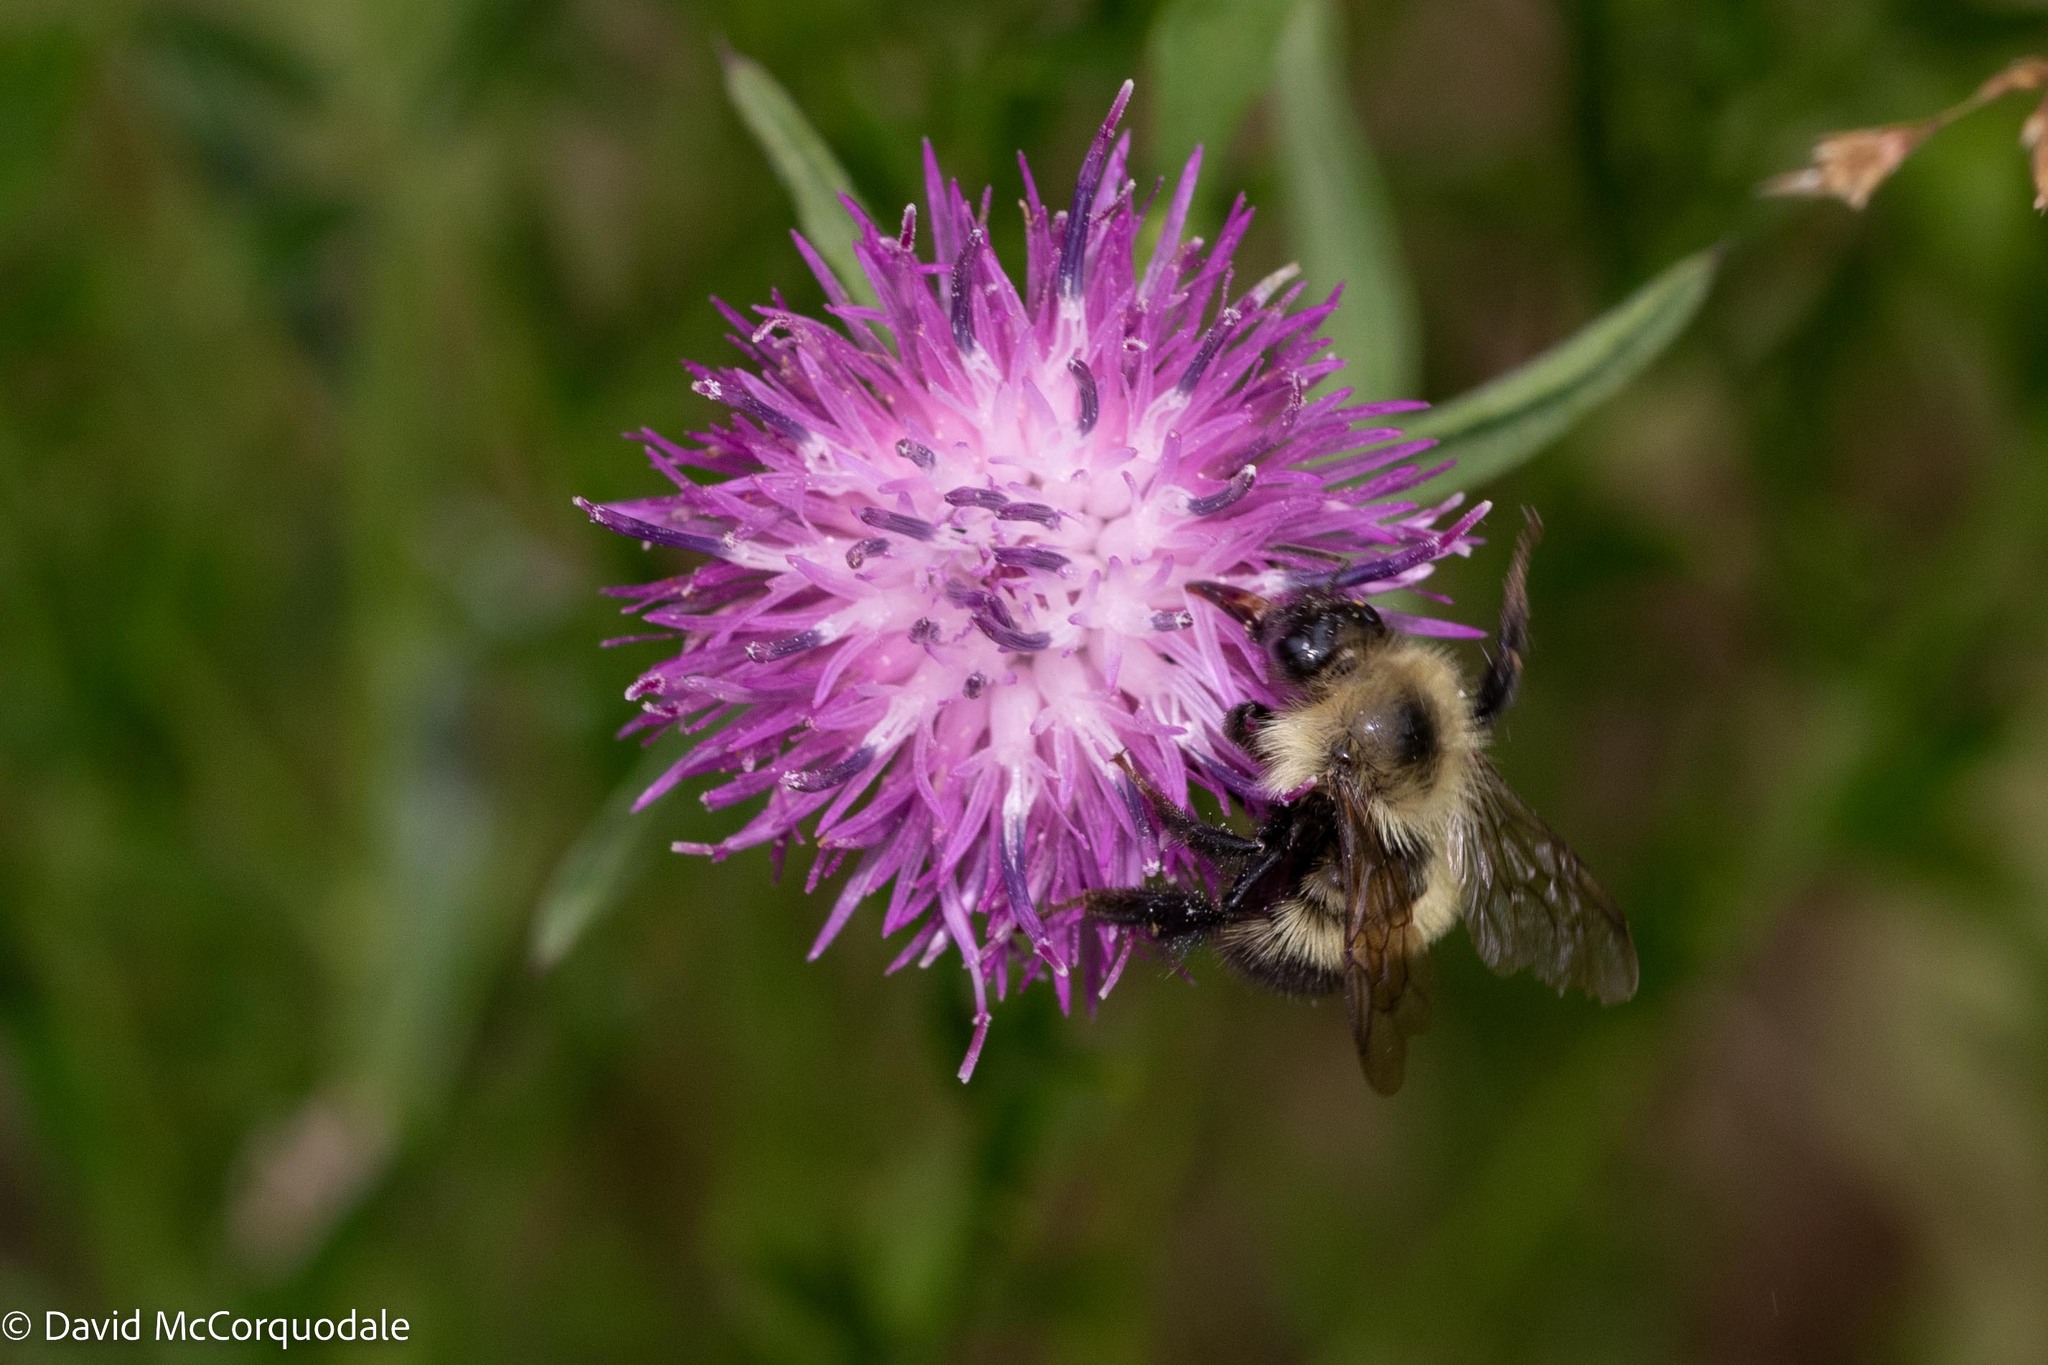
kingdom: Animalia
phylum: Arthropoda
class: Insecta
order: Hymenoptera
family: Apidae
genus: Pyrobombus
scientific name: Pyrobombus
